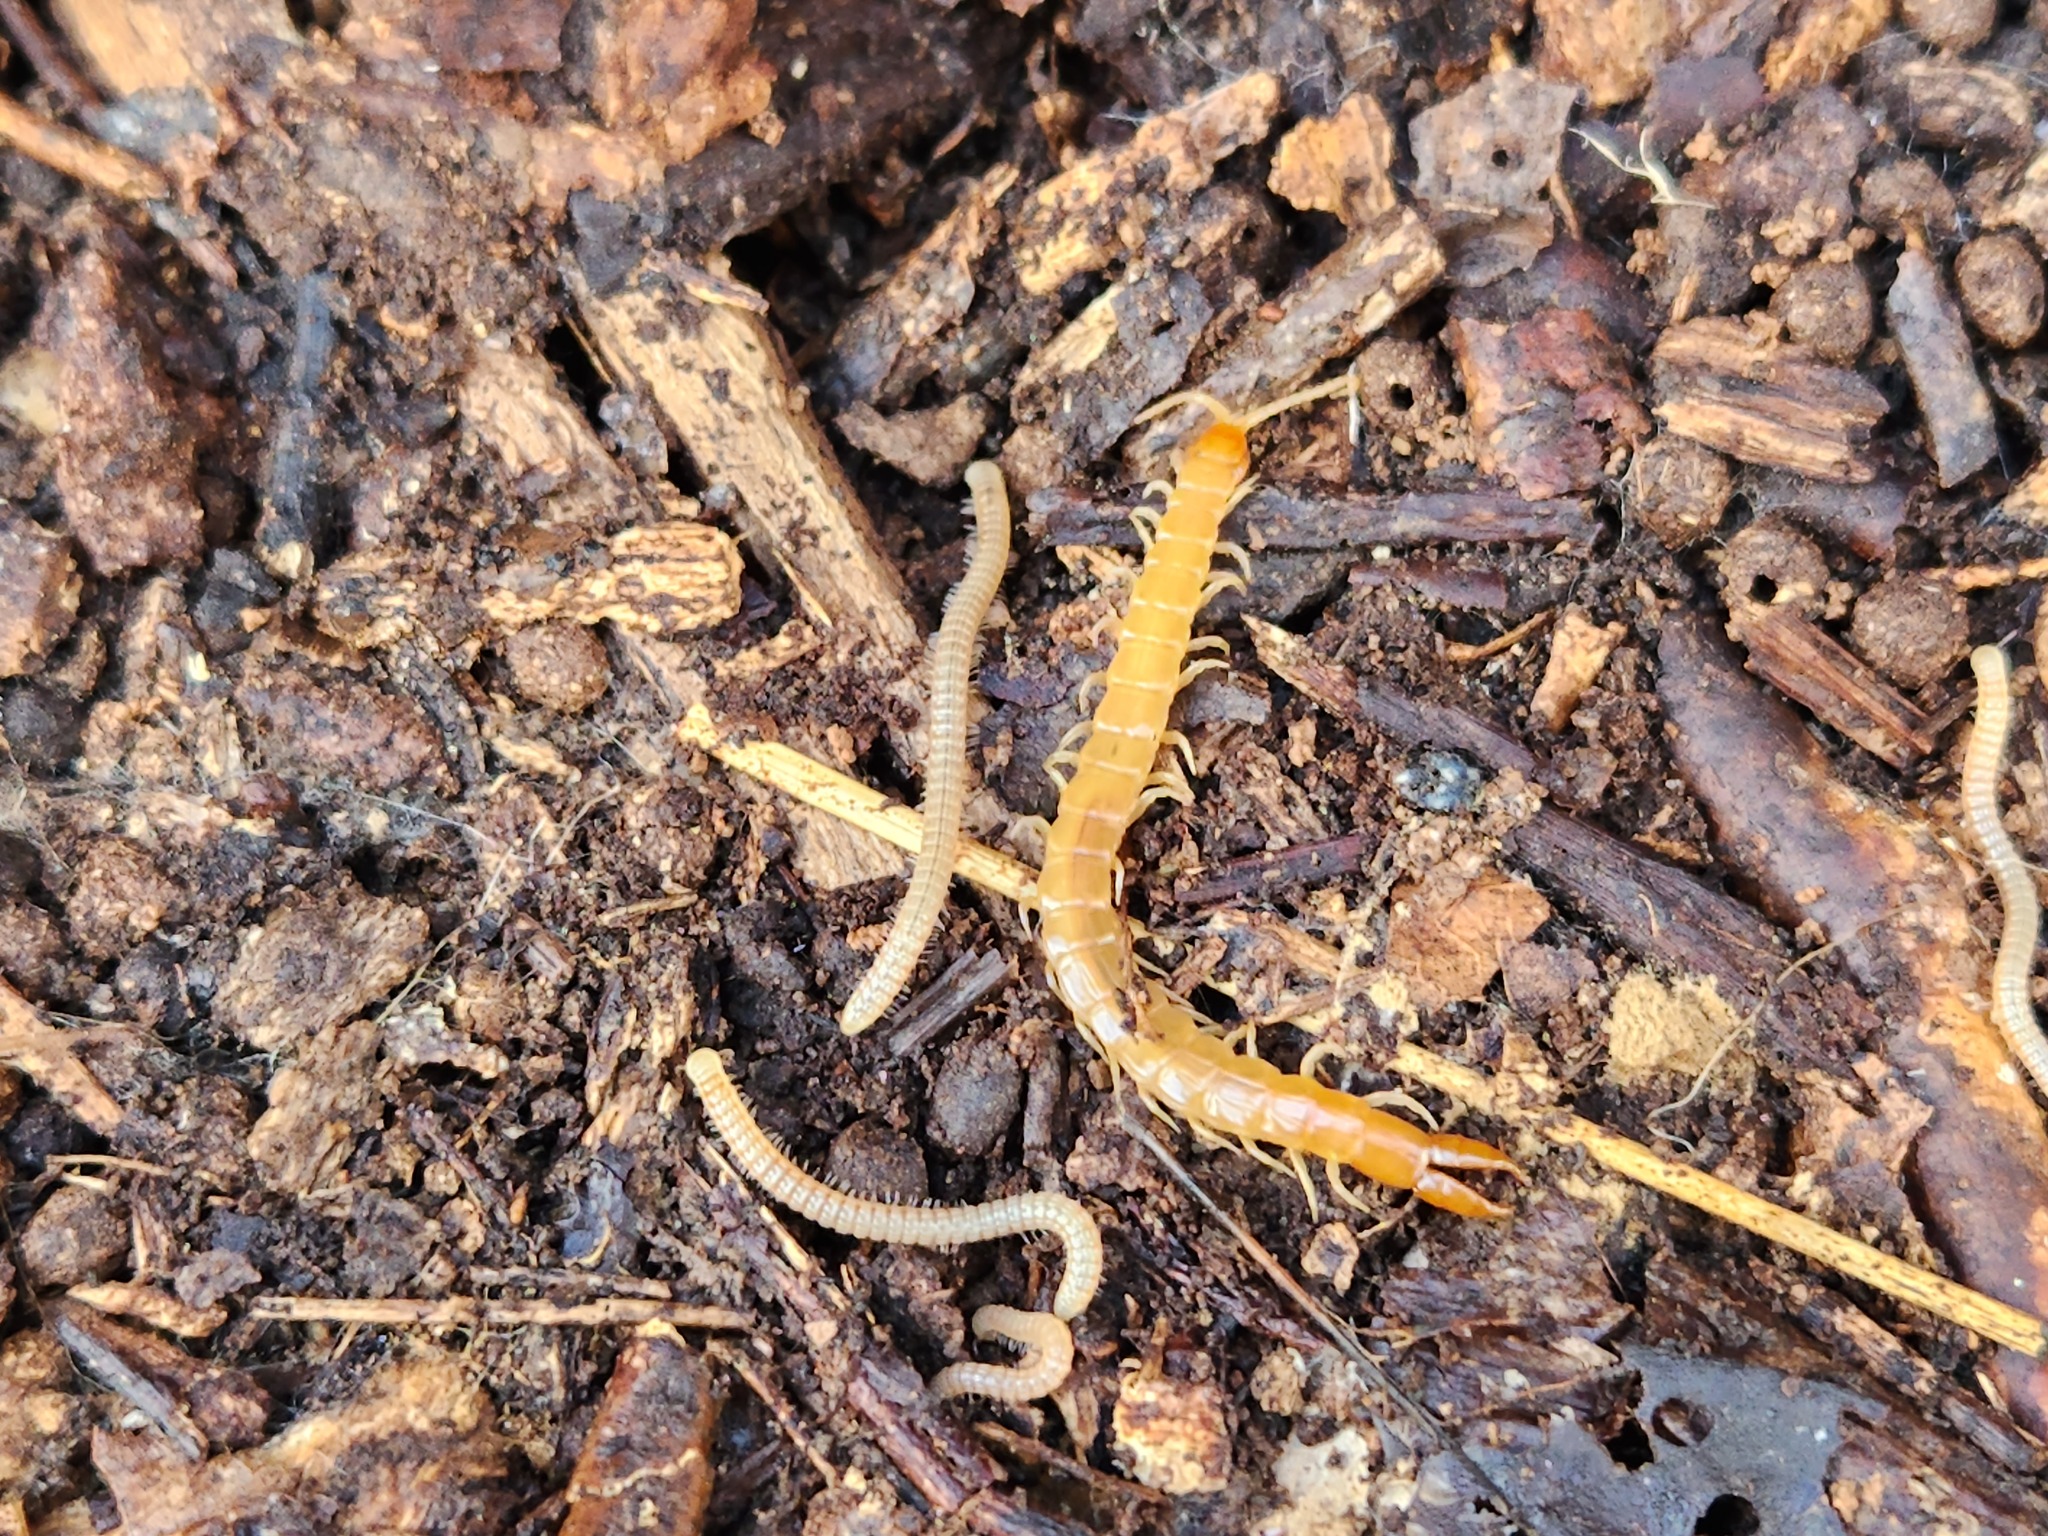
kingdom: Animalia
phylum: Arthropoda
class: Chilopoda
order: Scolopendromorpha
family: Cryptopidae
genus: Theatops
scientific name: Theatops posticus
